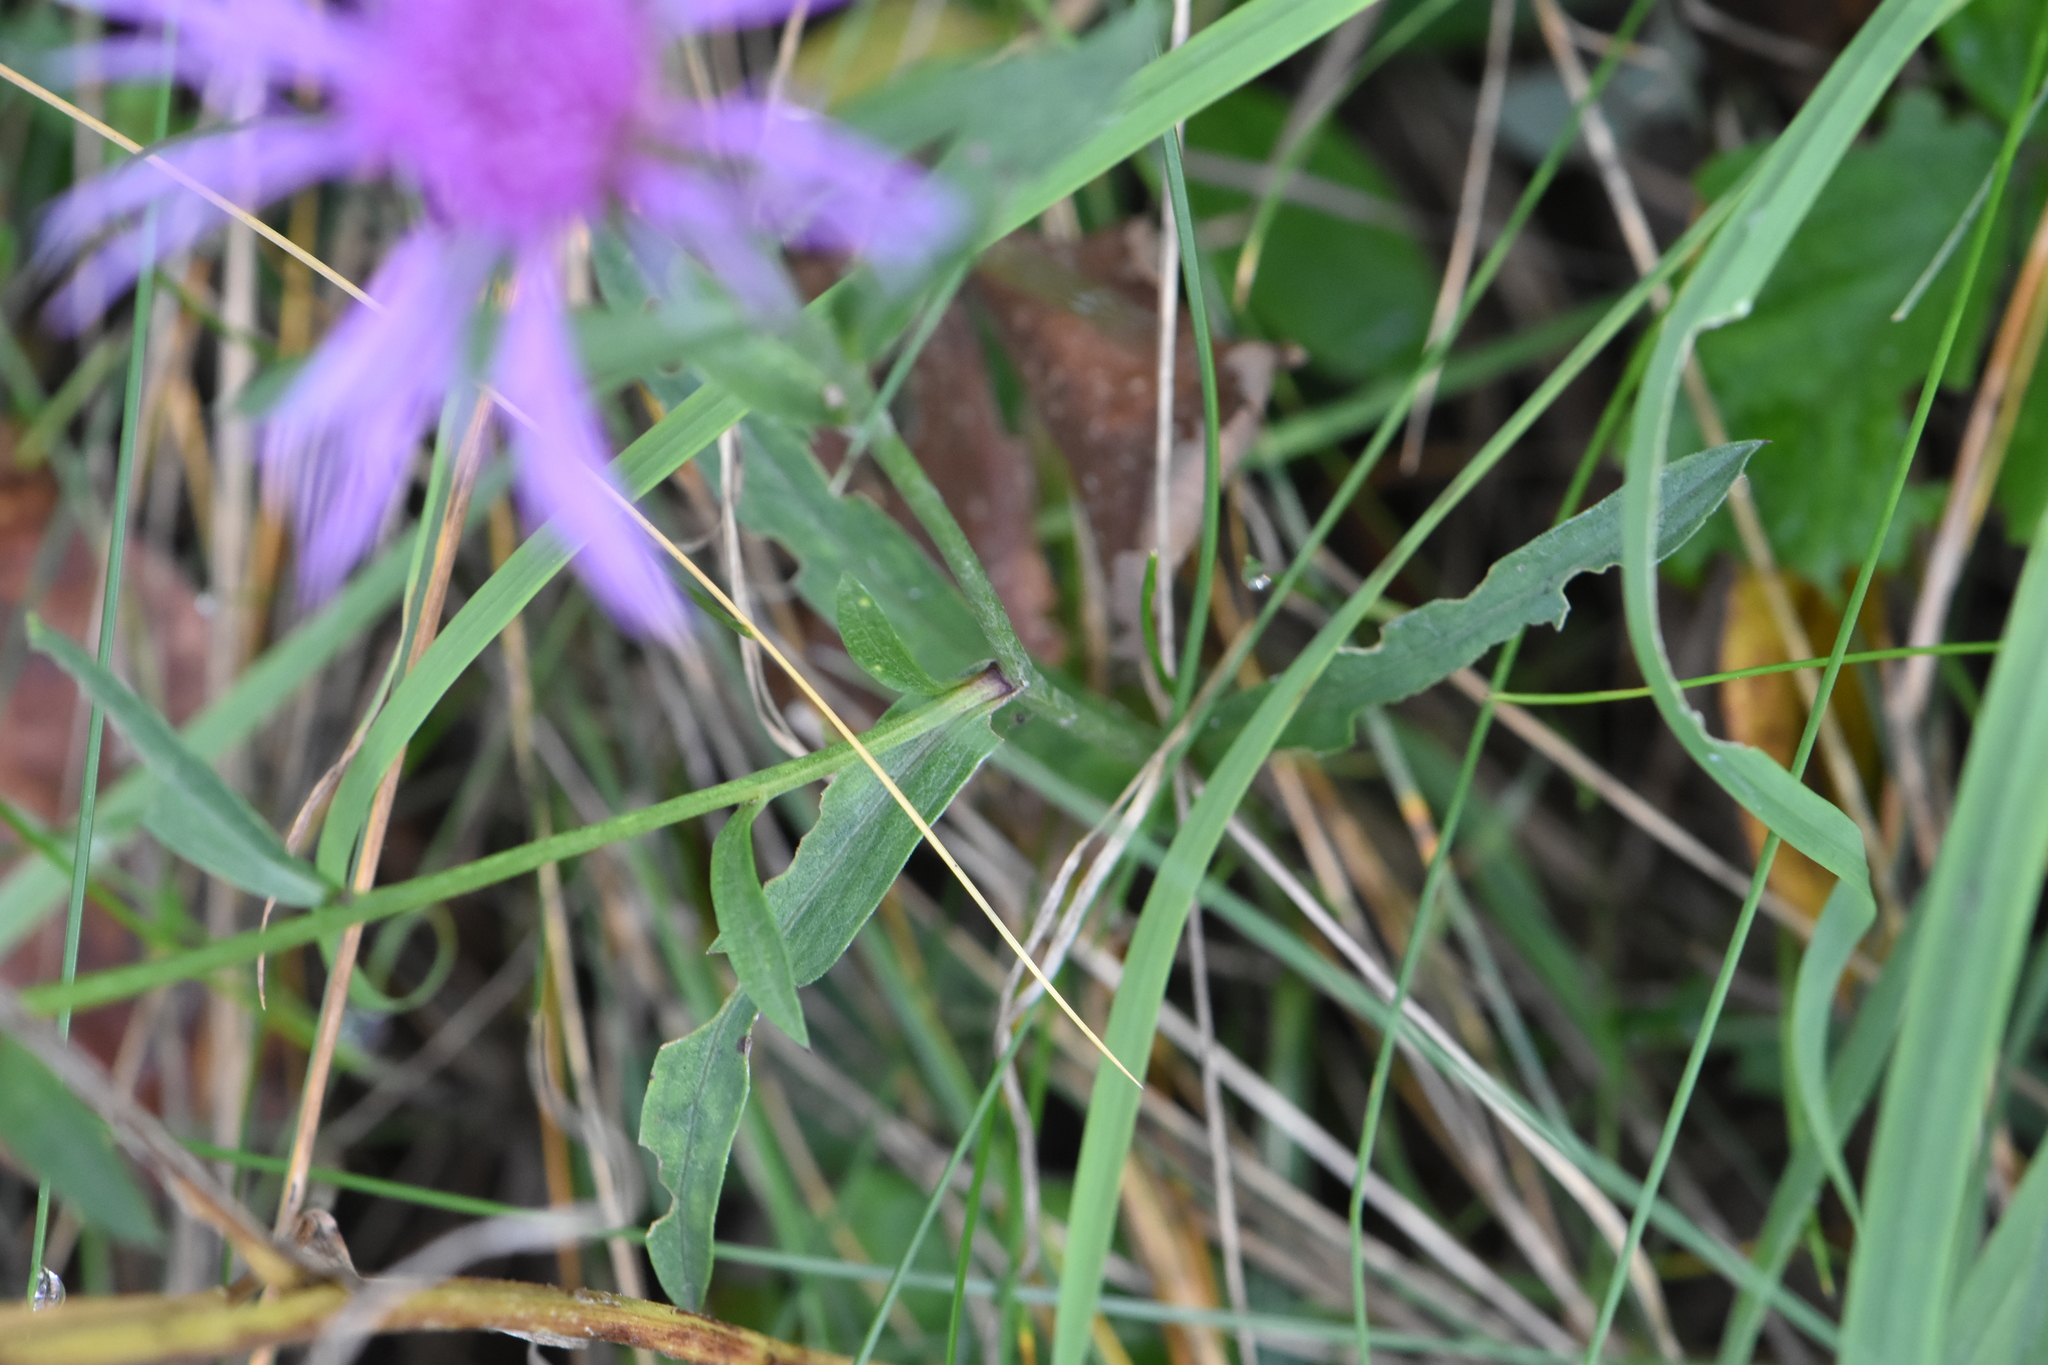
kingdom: Plantae
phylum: Tracheophyta
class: Magnoliopsida
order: Asterales
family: Asteraceae
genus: Centaurea
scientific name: Centaurea jacea
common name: Brown knapweed
